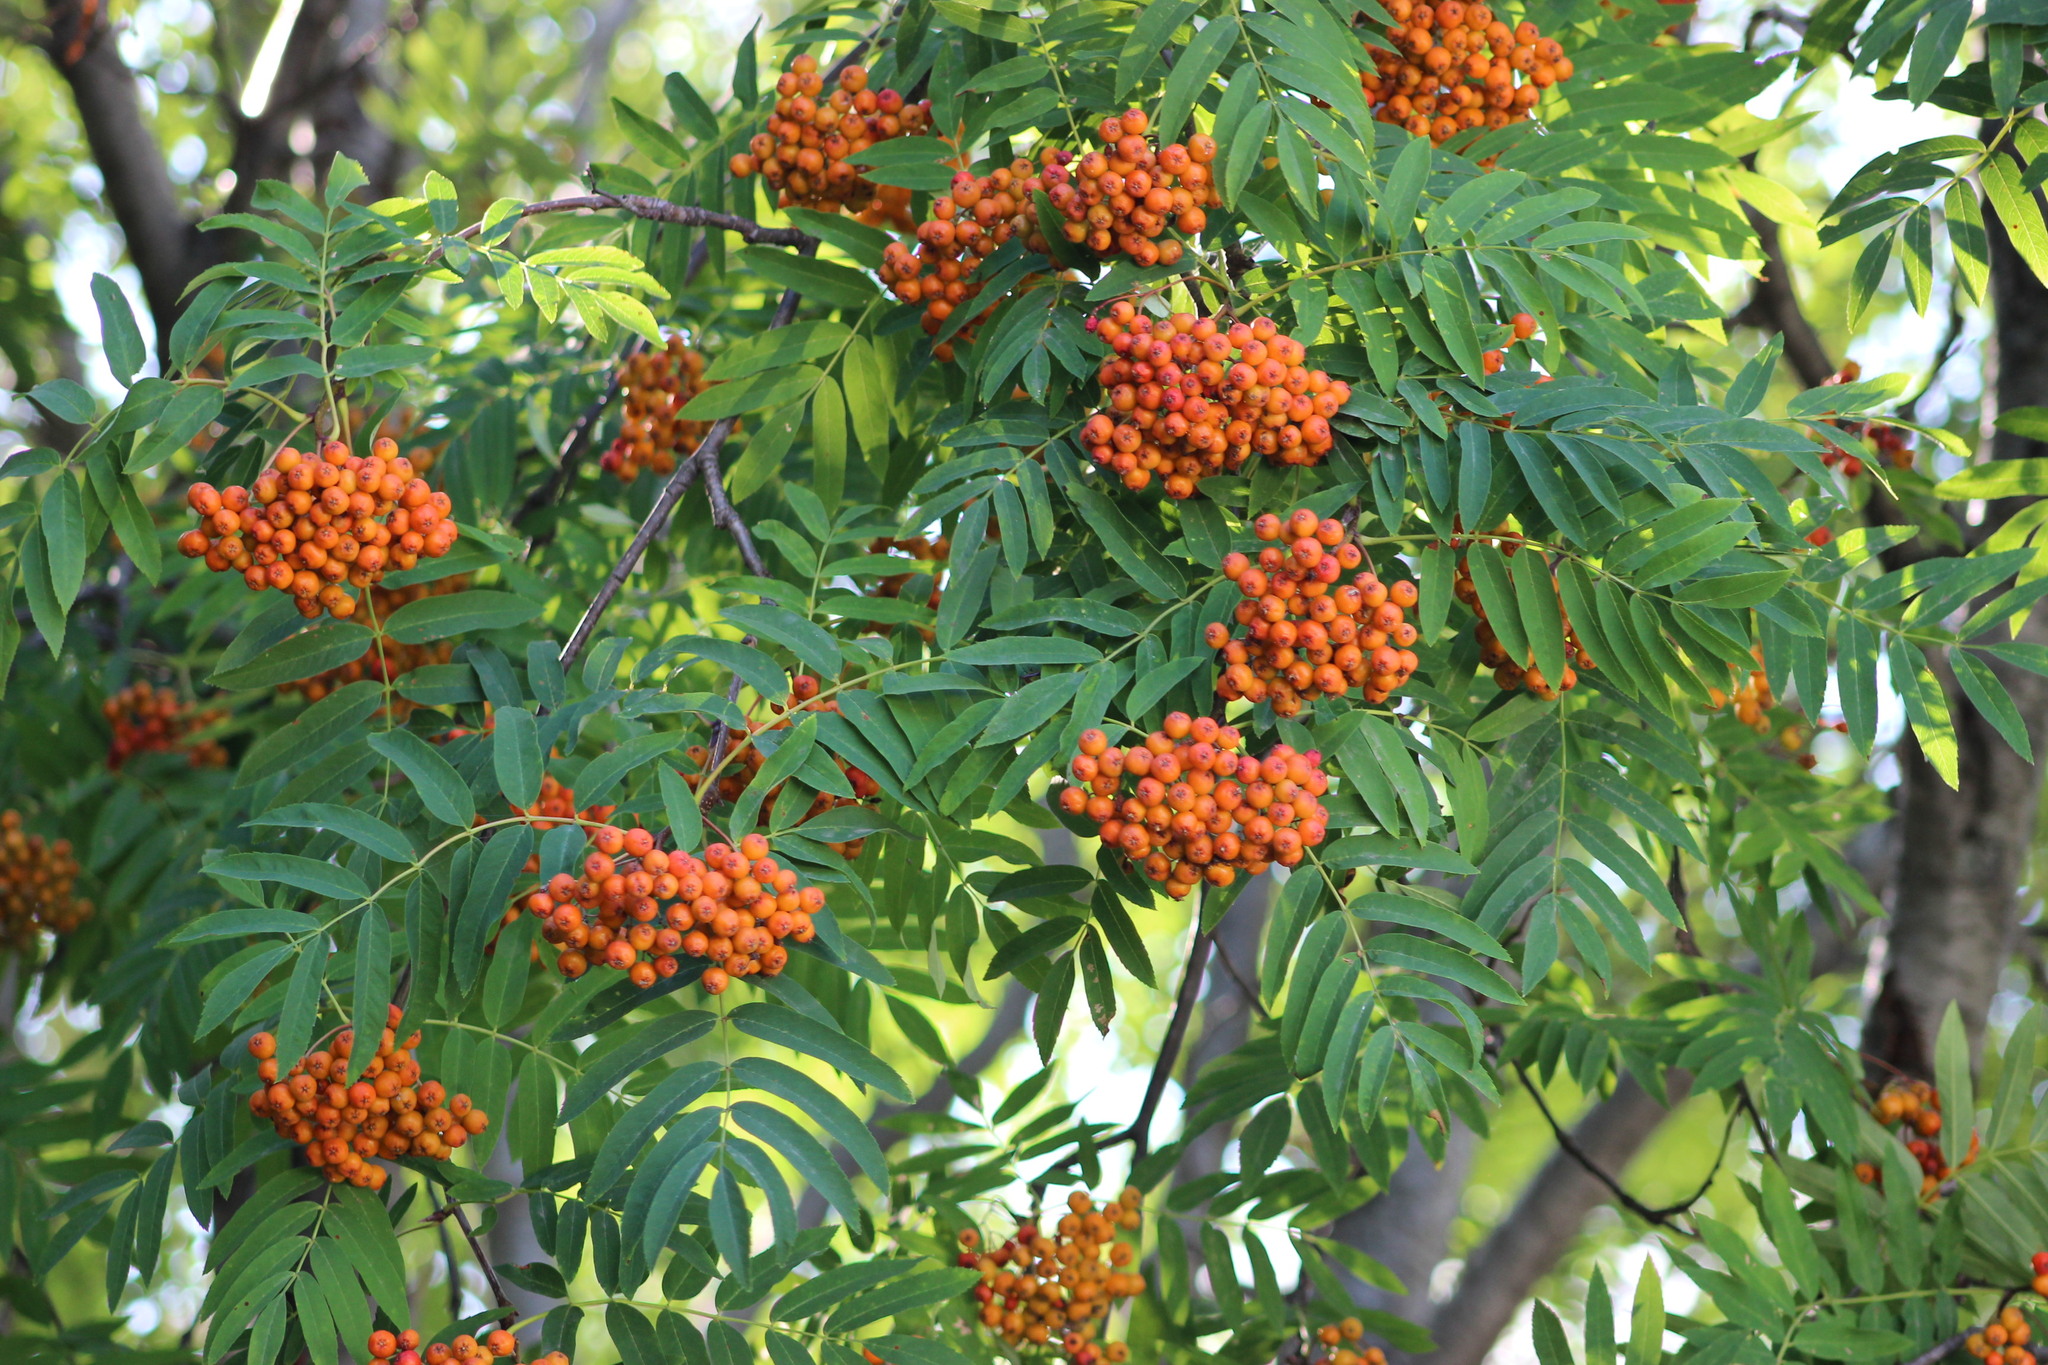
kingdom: Plantae
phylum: Tracheophyta
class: Magnoliopsida
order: Rosales
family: Rosaceae
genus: Sorbus
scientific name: Sorbus aucuparia
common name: Rowan
